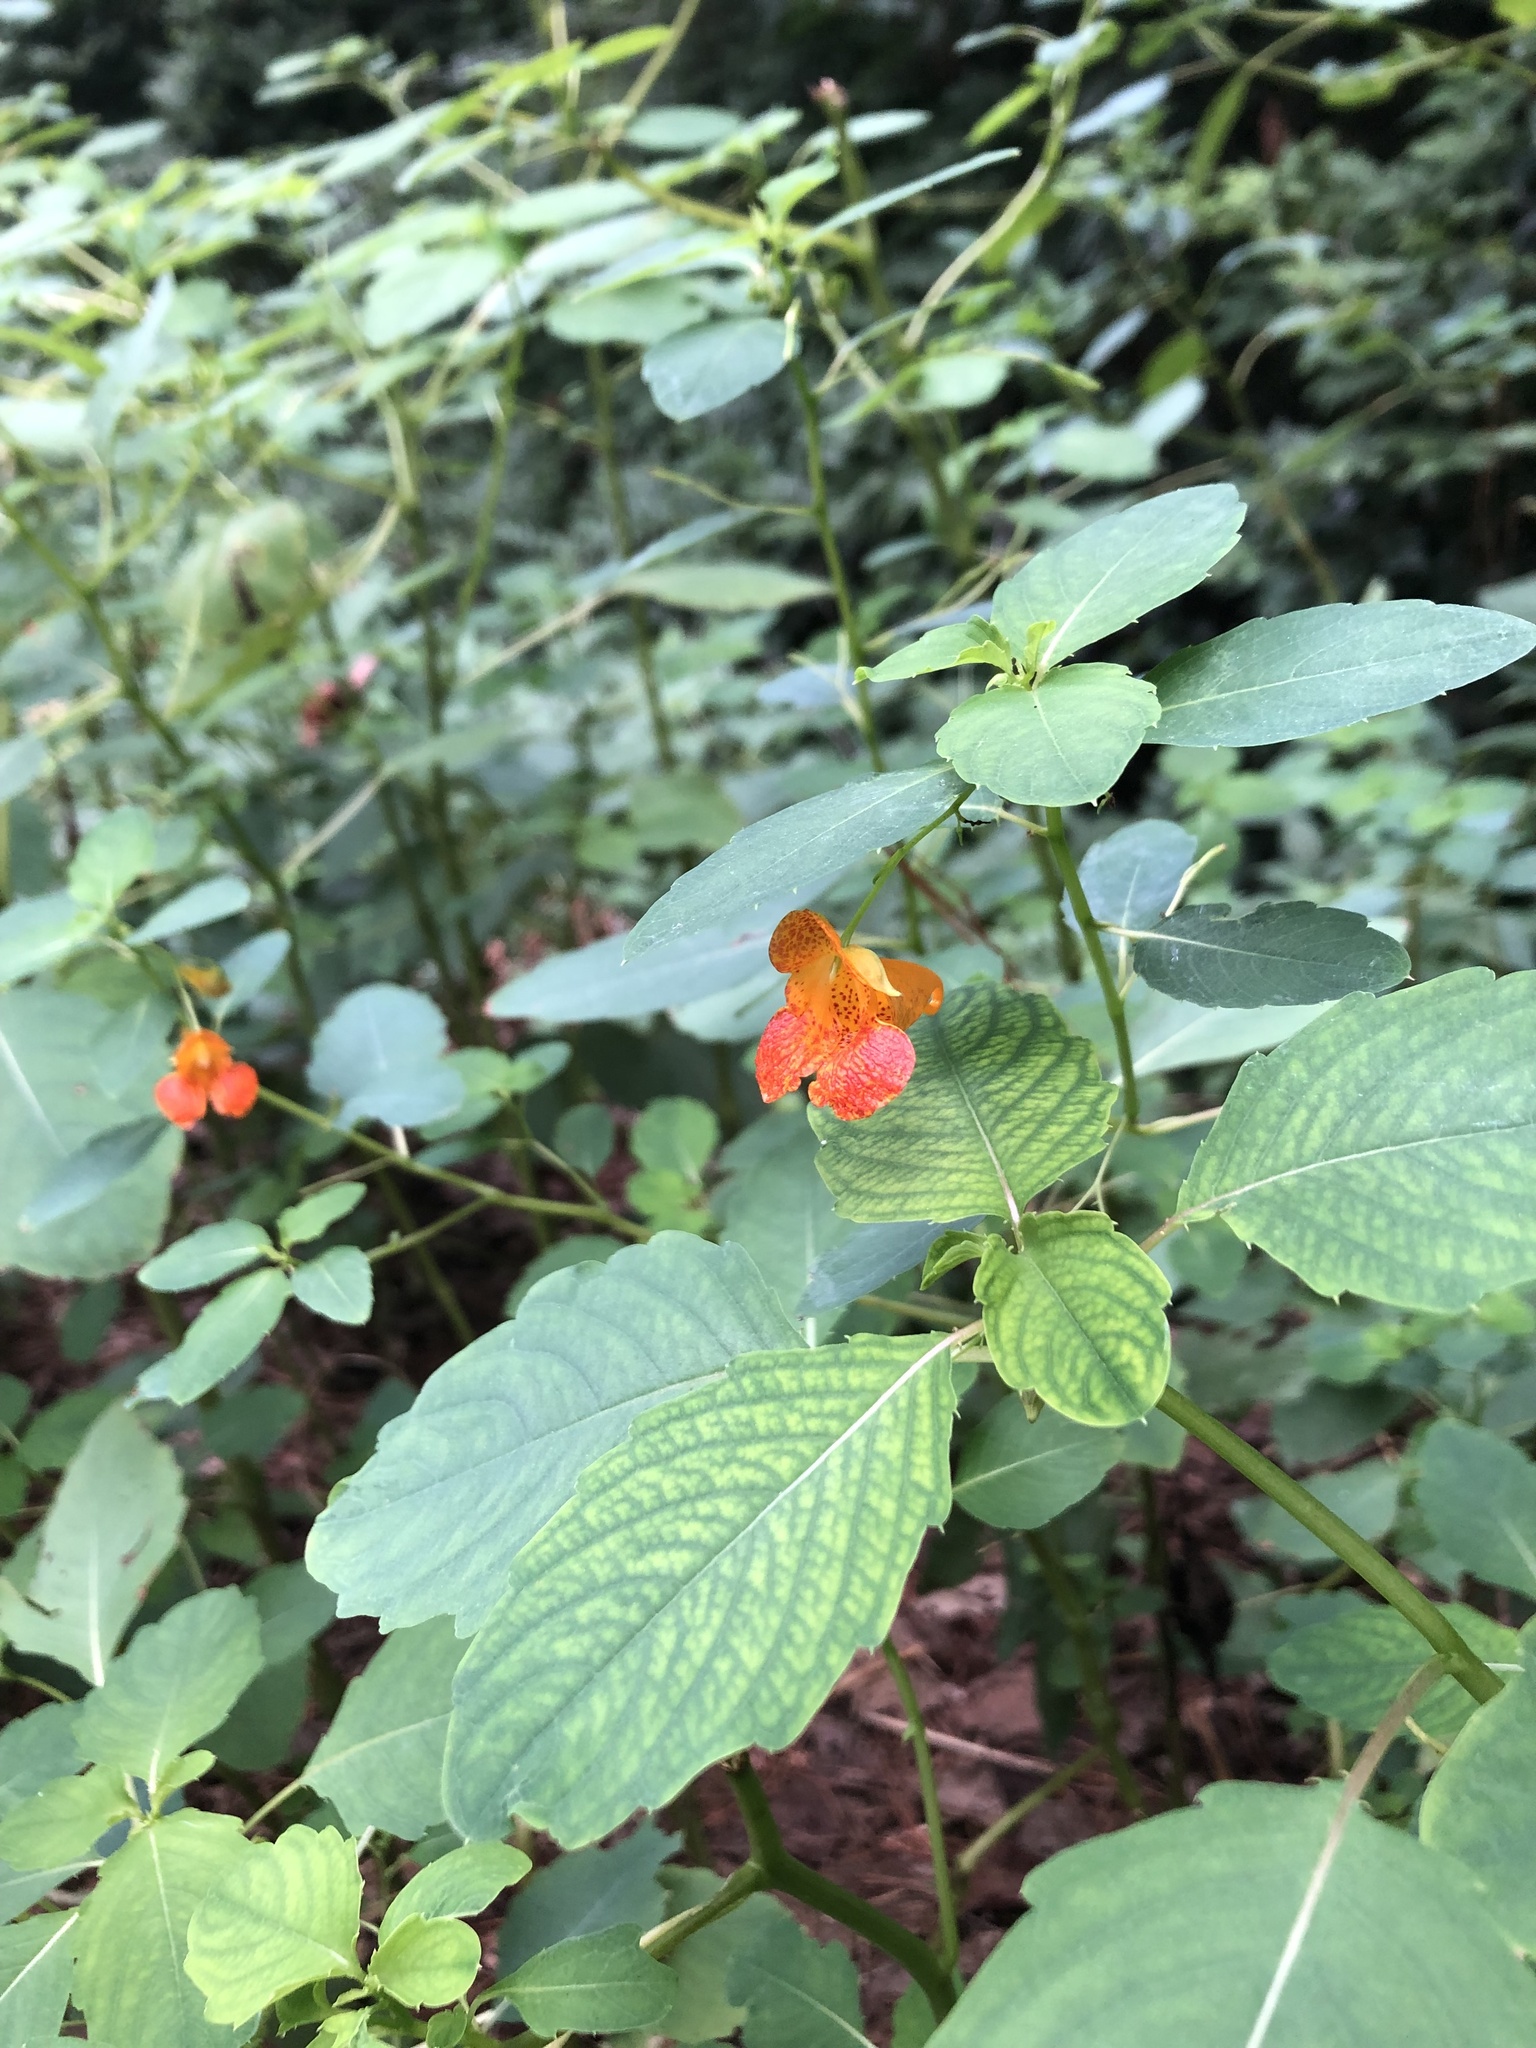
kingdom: Plantae
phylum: Tracheophyta
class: Magnoliopsida
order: Ericales
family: Balsaminaceae
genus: Impatiens
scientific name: Impatiens capensis
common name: Orange balsam
